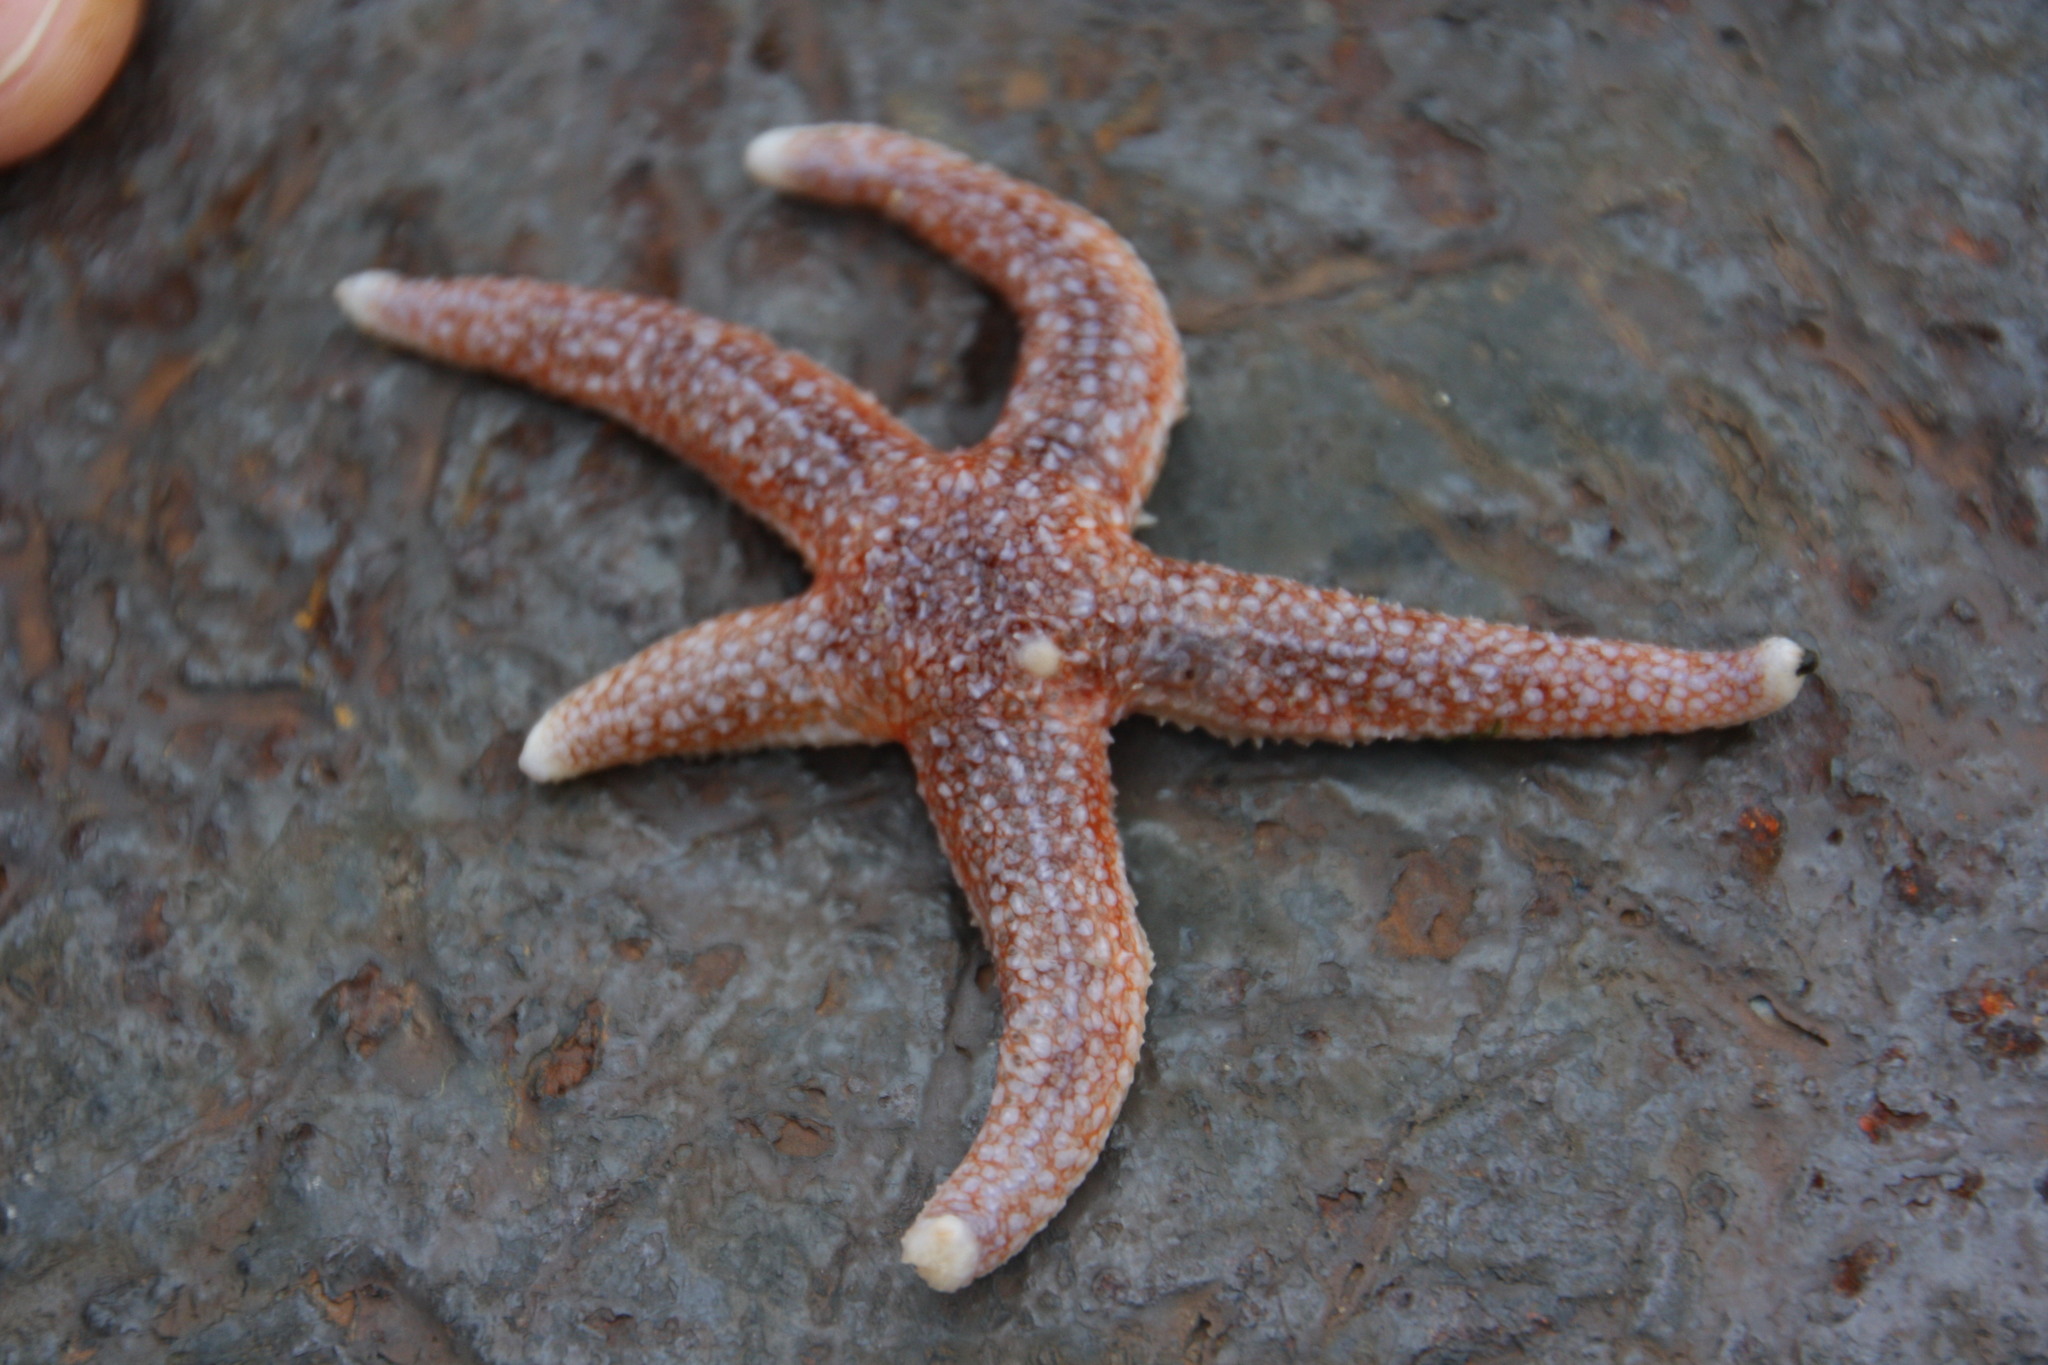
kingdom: Animalia
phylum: Echinodermata
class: Asteroidea
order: Forcipulatida
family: Asteriidae
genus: Asterias
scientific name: Asterias rubens
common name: Common starfish
